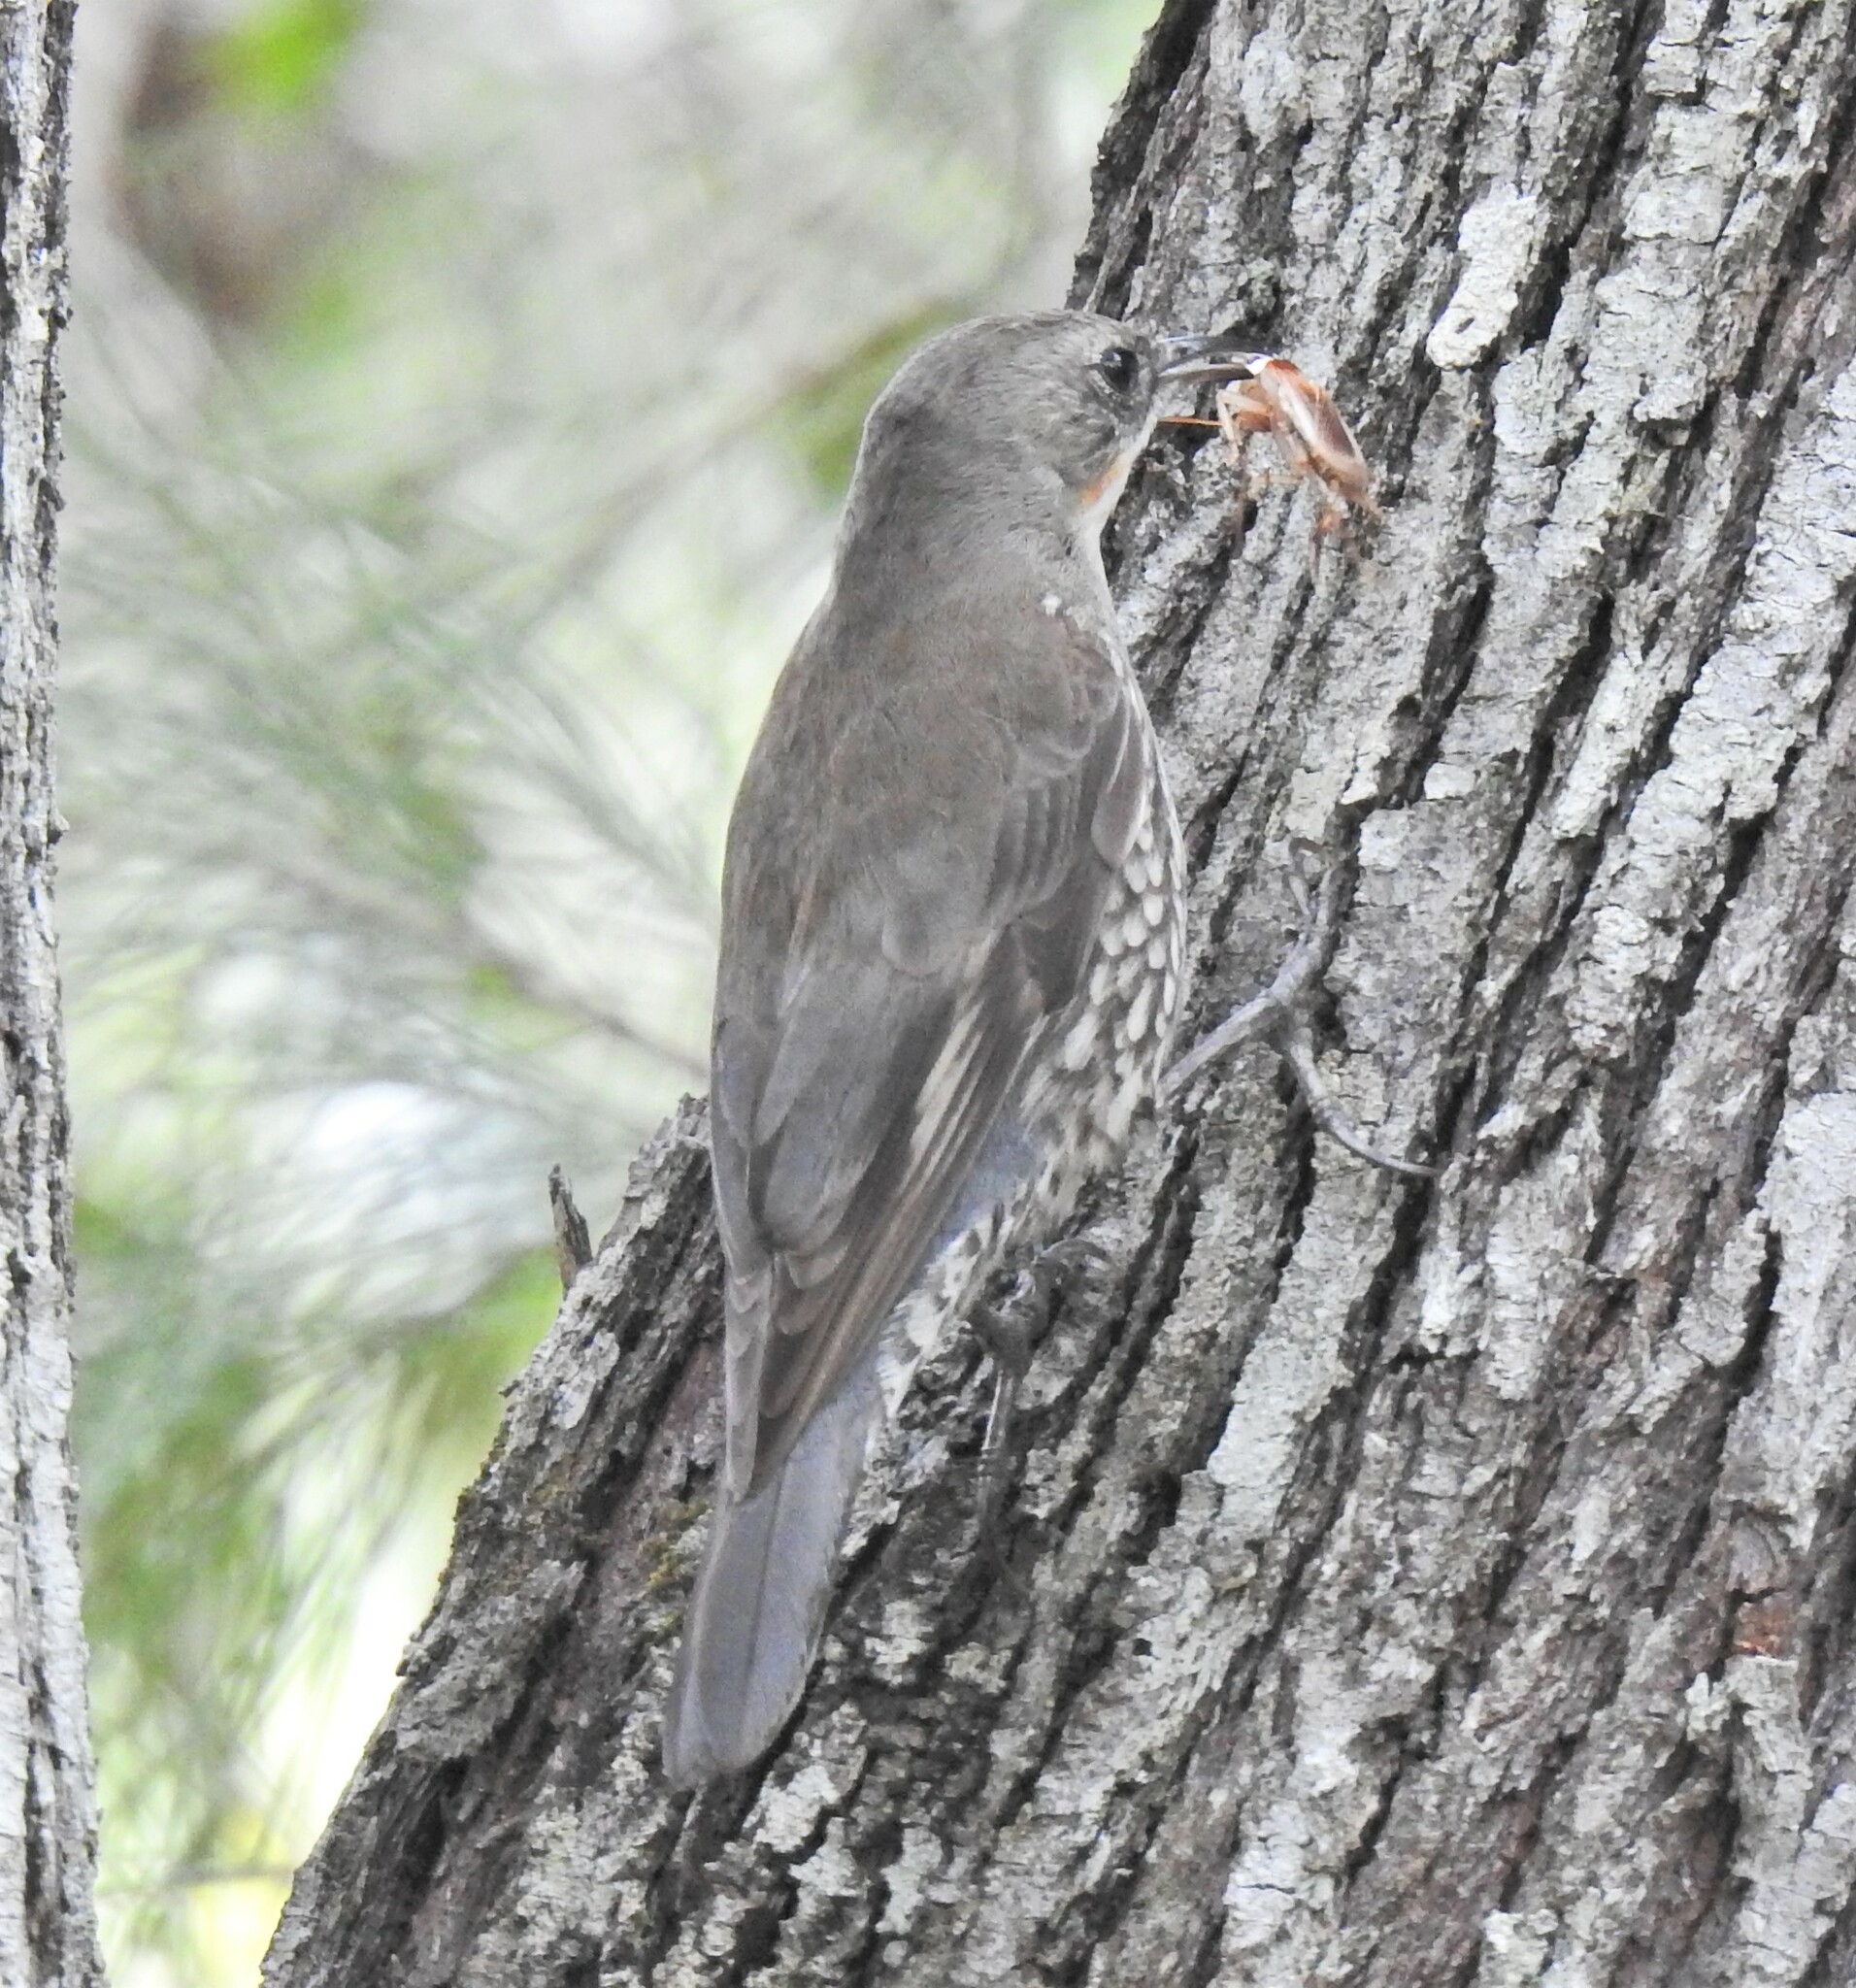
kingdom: Animalia
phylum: Chordata
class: Aves
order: Passeriformes
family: Climacteridae
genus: Cormobates
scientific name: Cormobates leucophaea
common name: White-throated treecreeper
